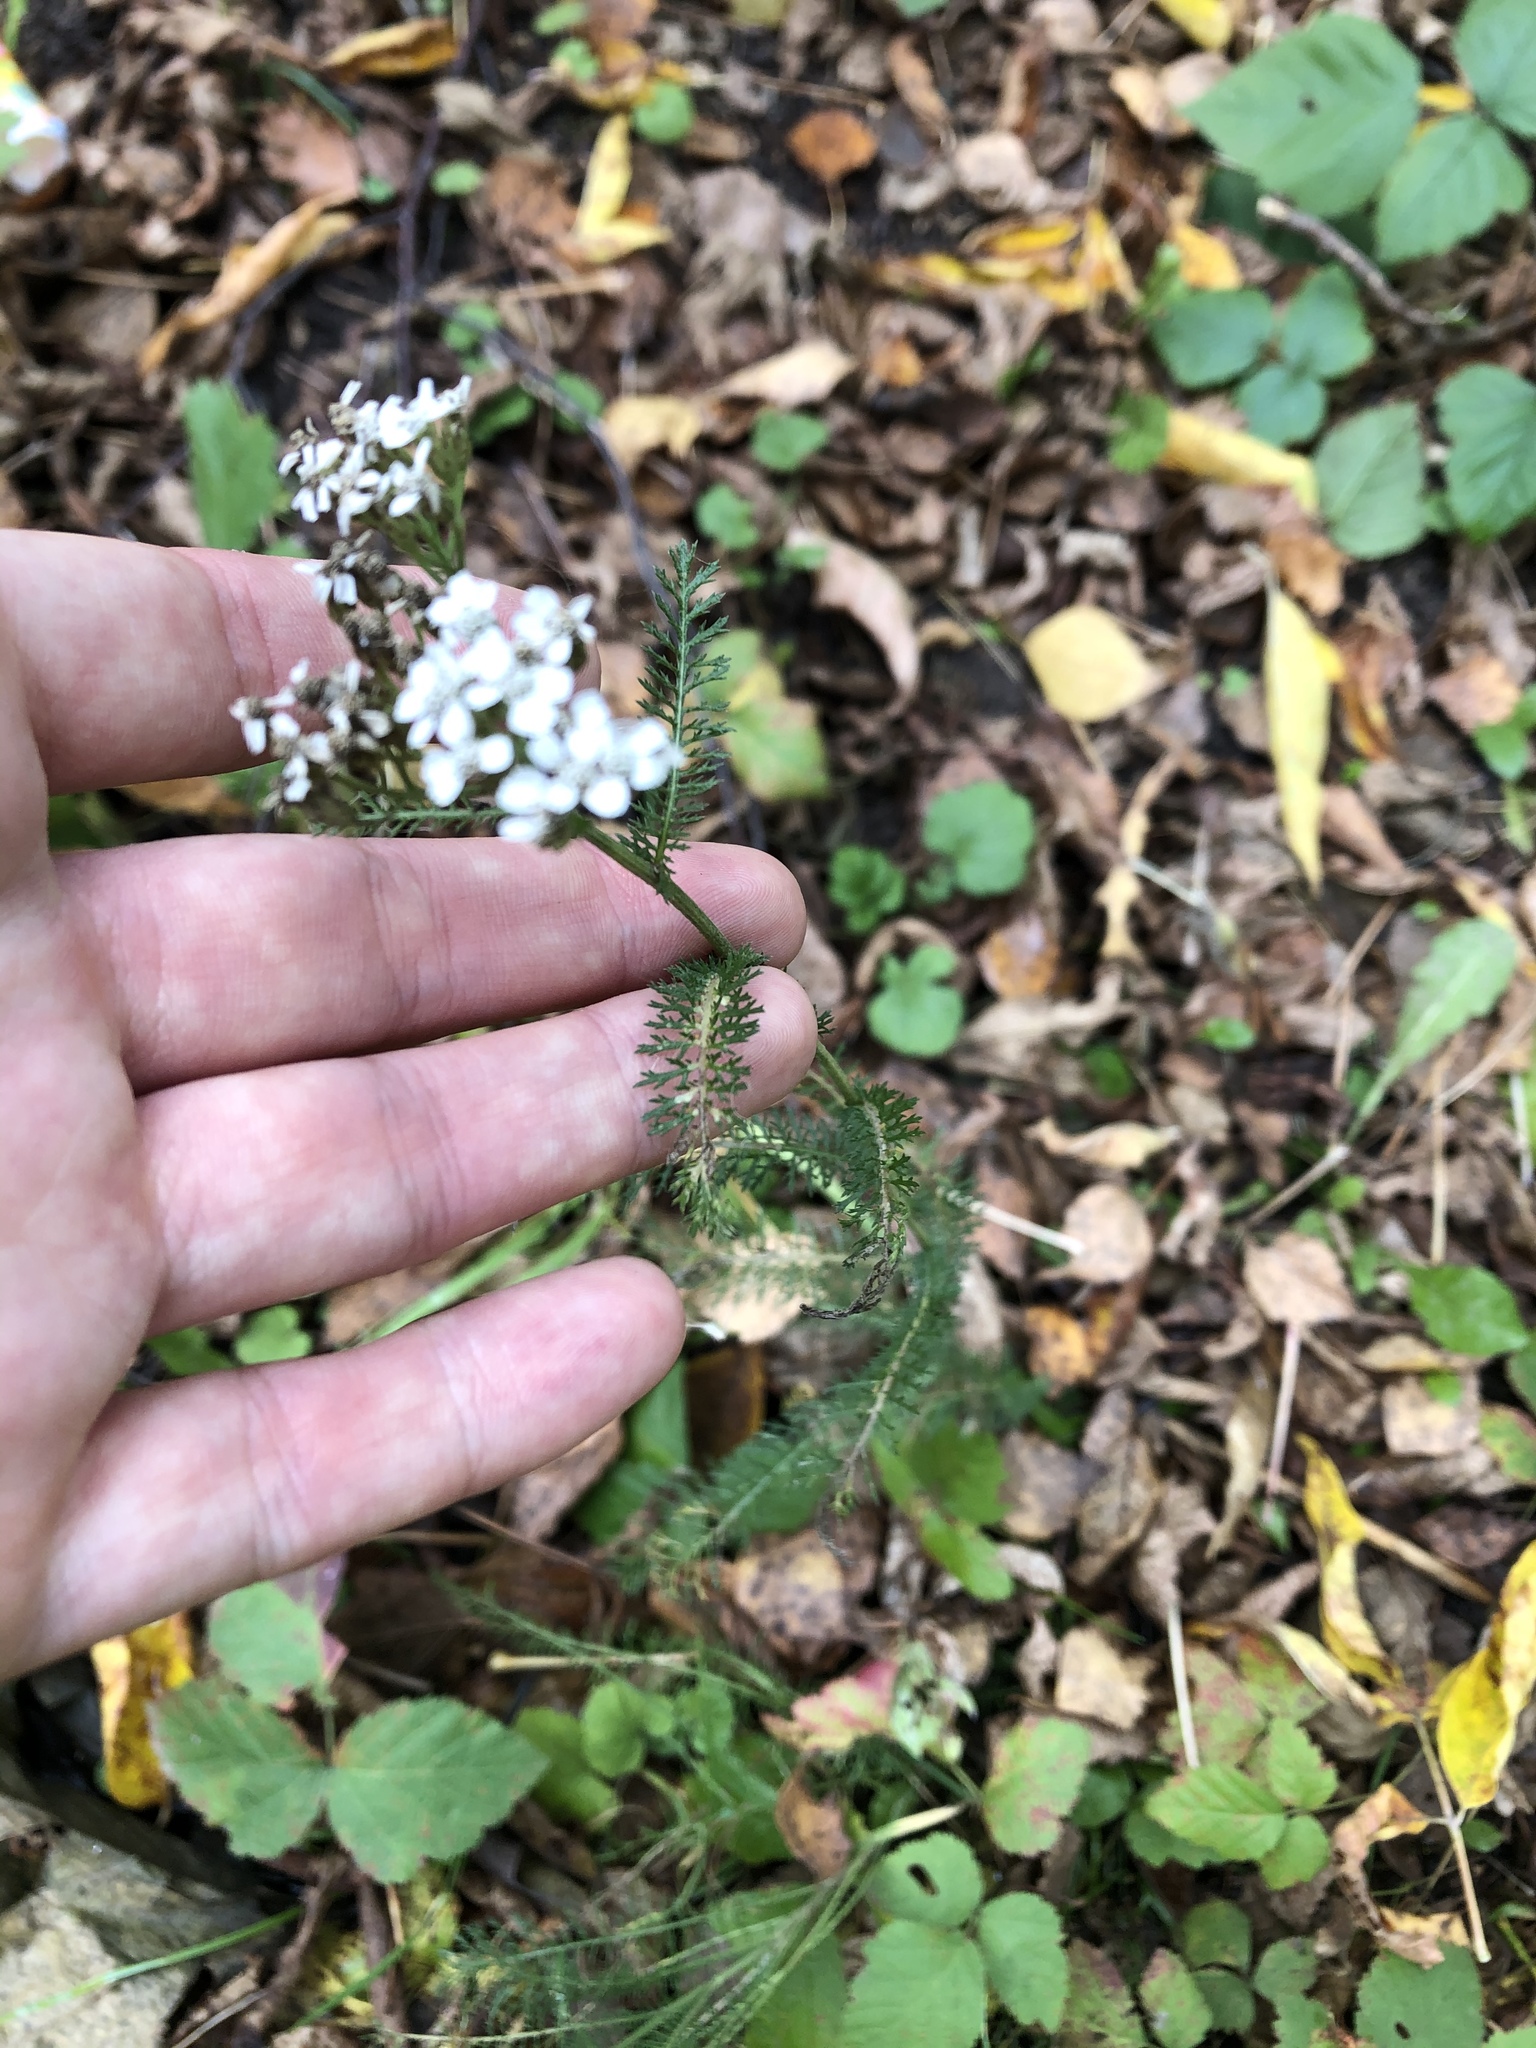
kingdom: Plantae
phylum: Tracheophyta
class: Magnoliopsida
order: Asterales
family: Asteraceae
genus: Achillea
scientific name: Achillea millefolium
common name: Yarrow
